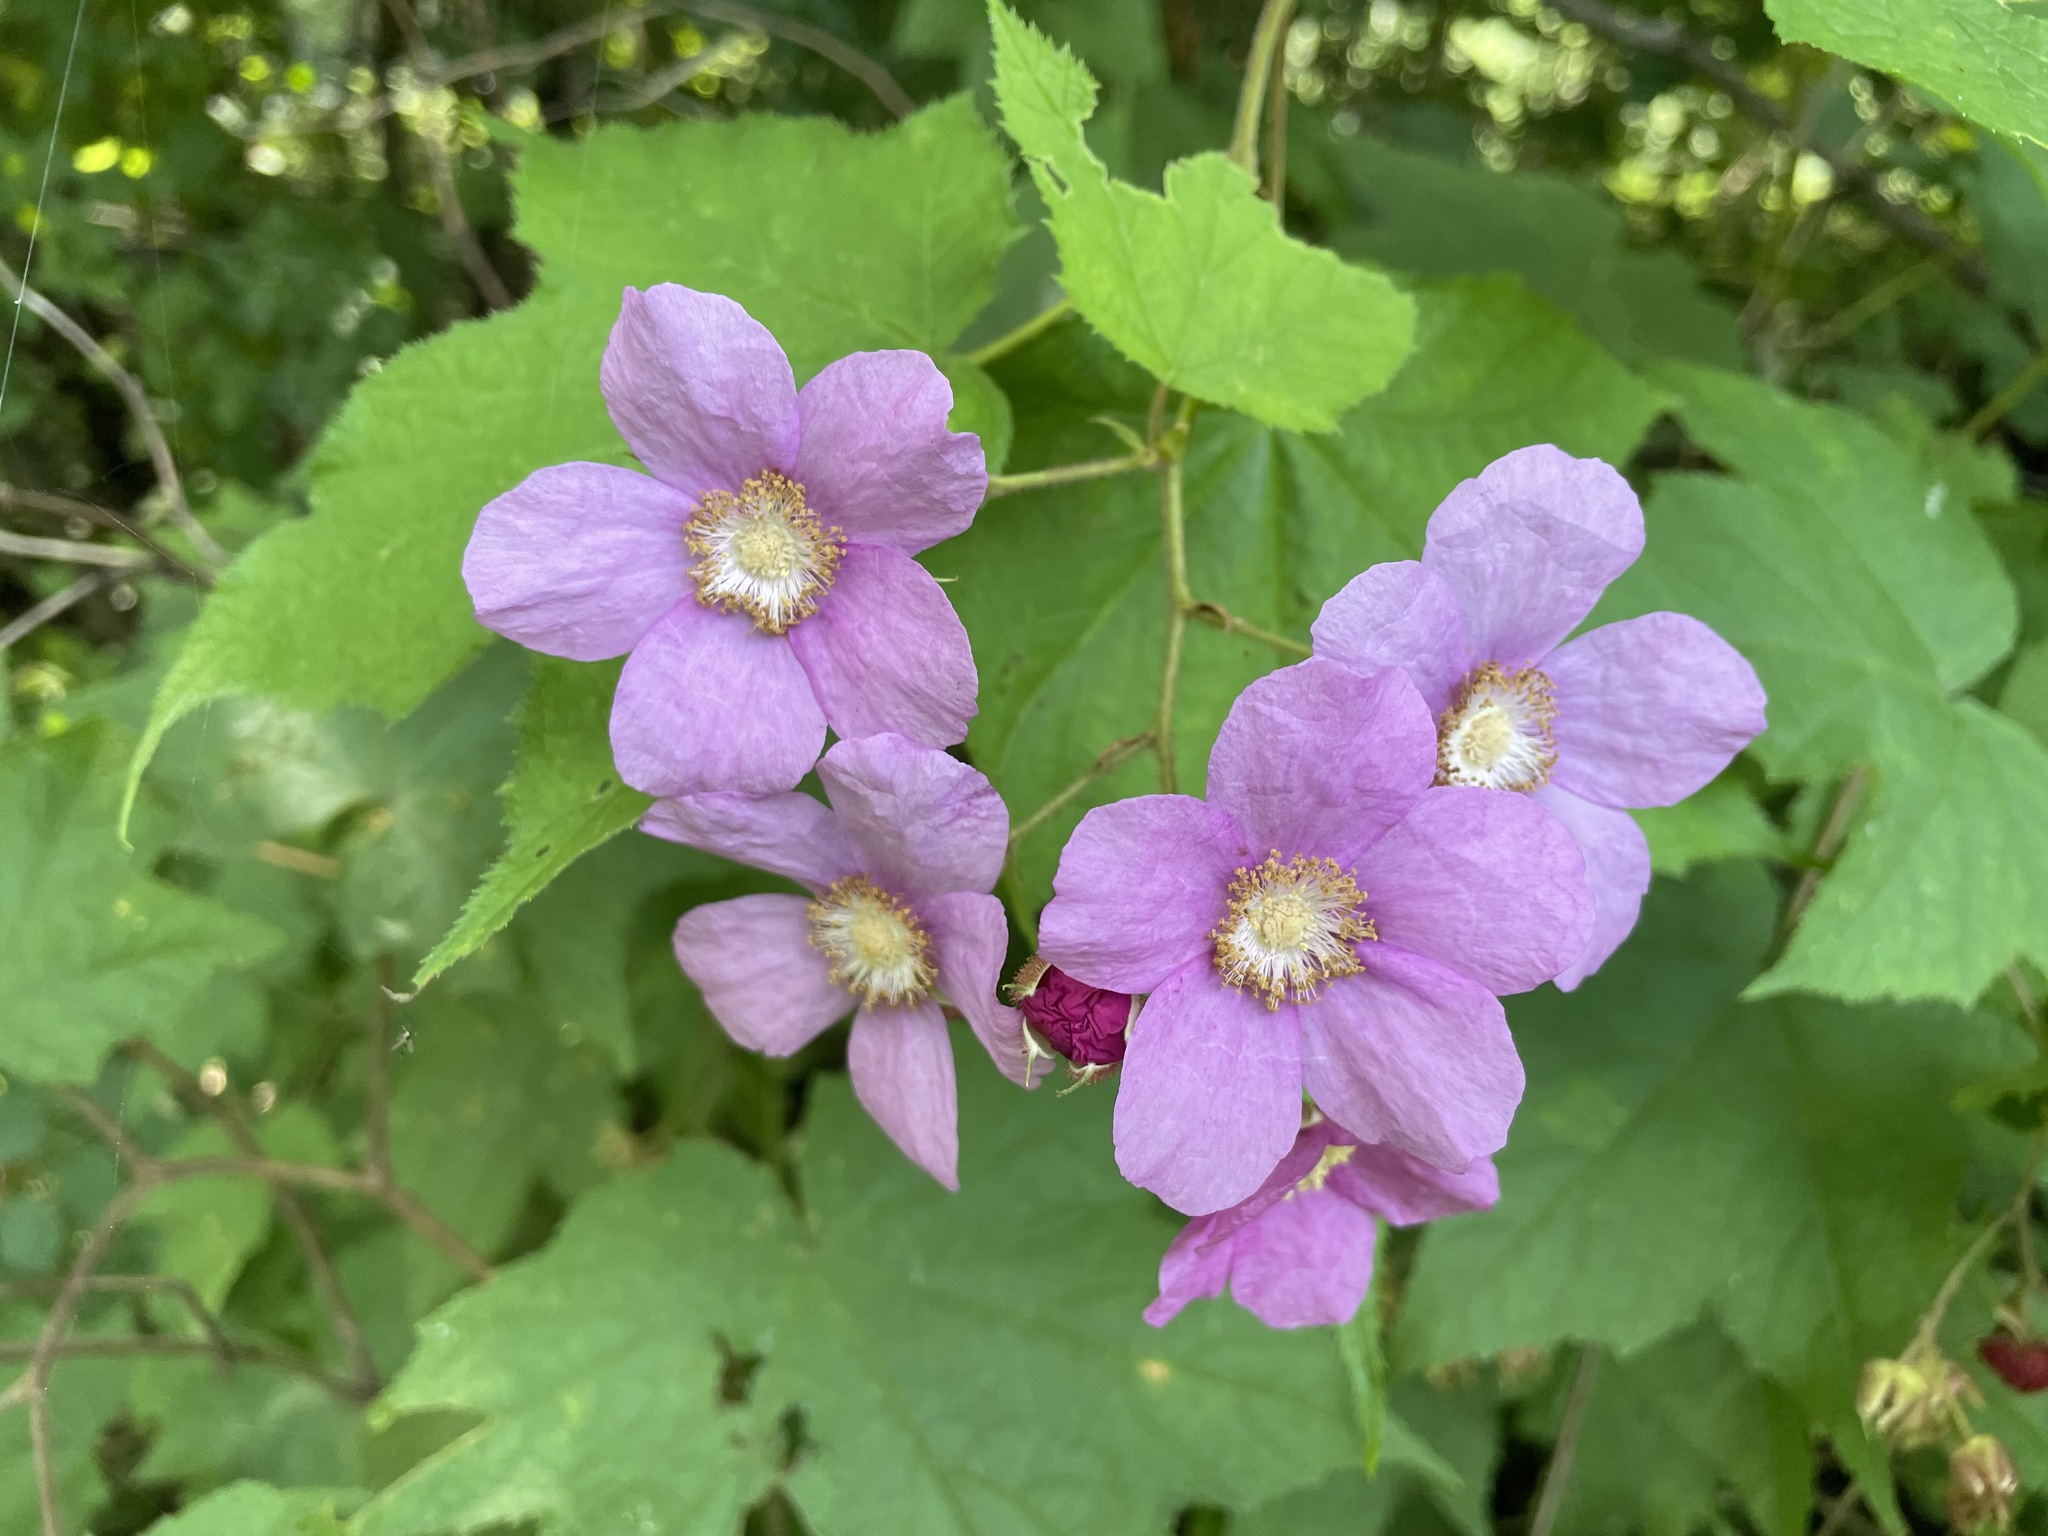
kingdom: Plantae
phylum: Tracheophyta
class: Magnoliopsida
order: Rosales
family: Rosaceae
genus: Rubus
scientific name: Rubus odoratus
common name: Purple-flowered raspberry
